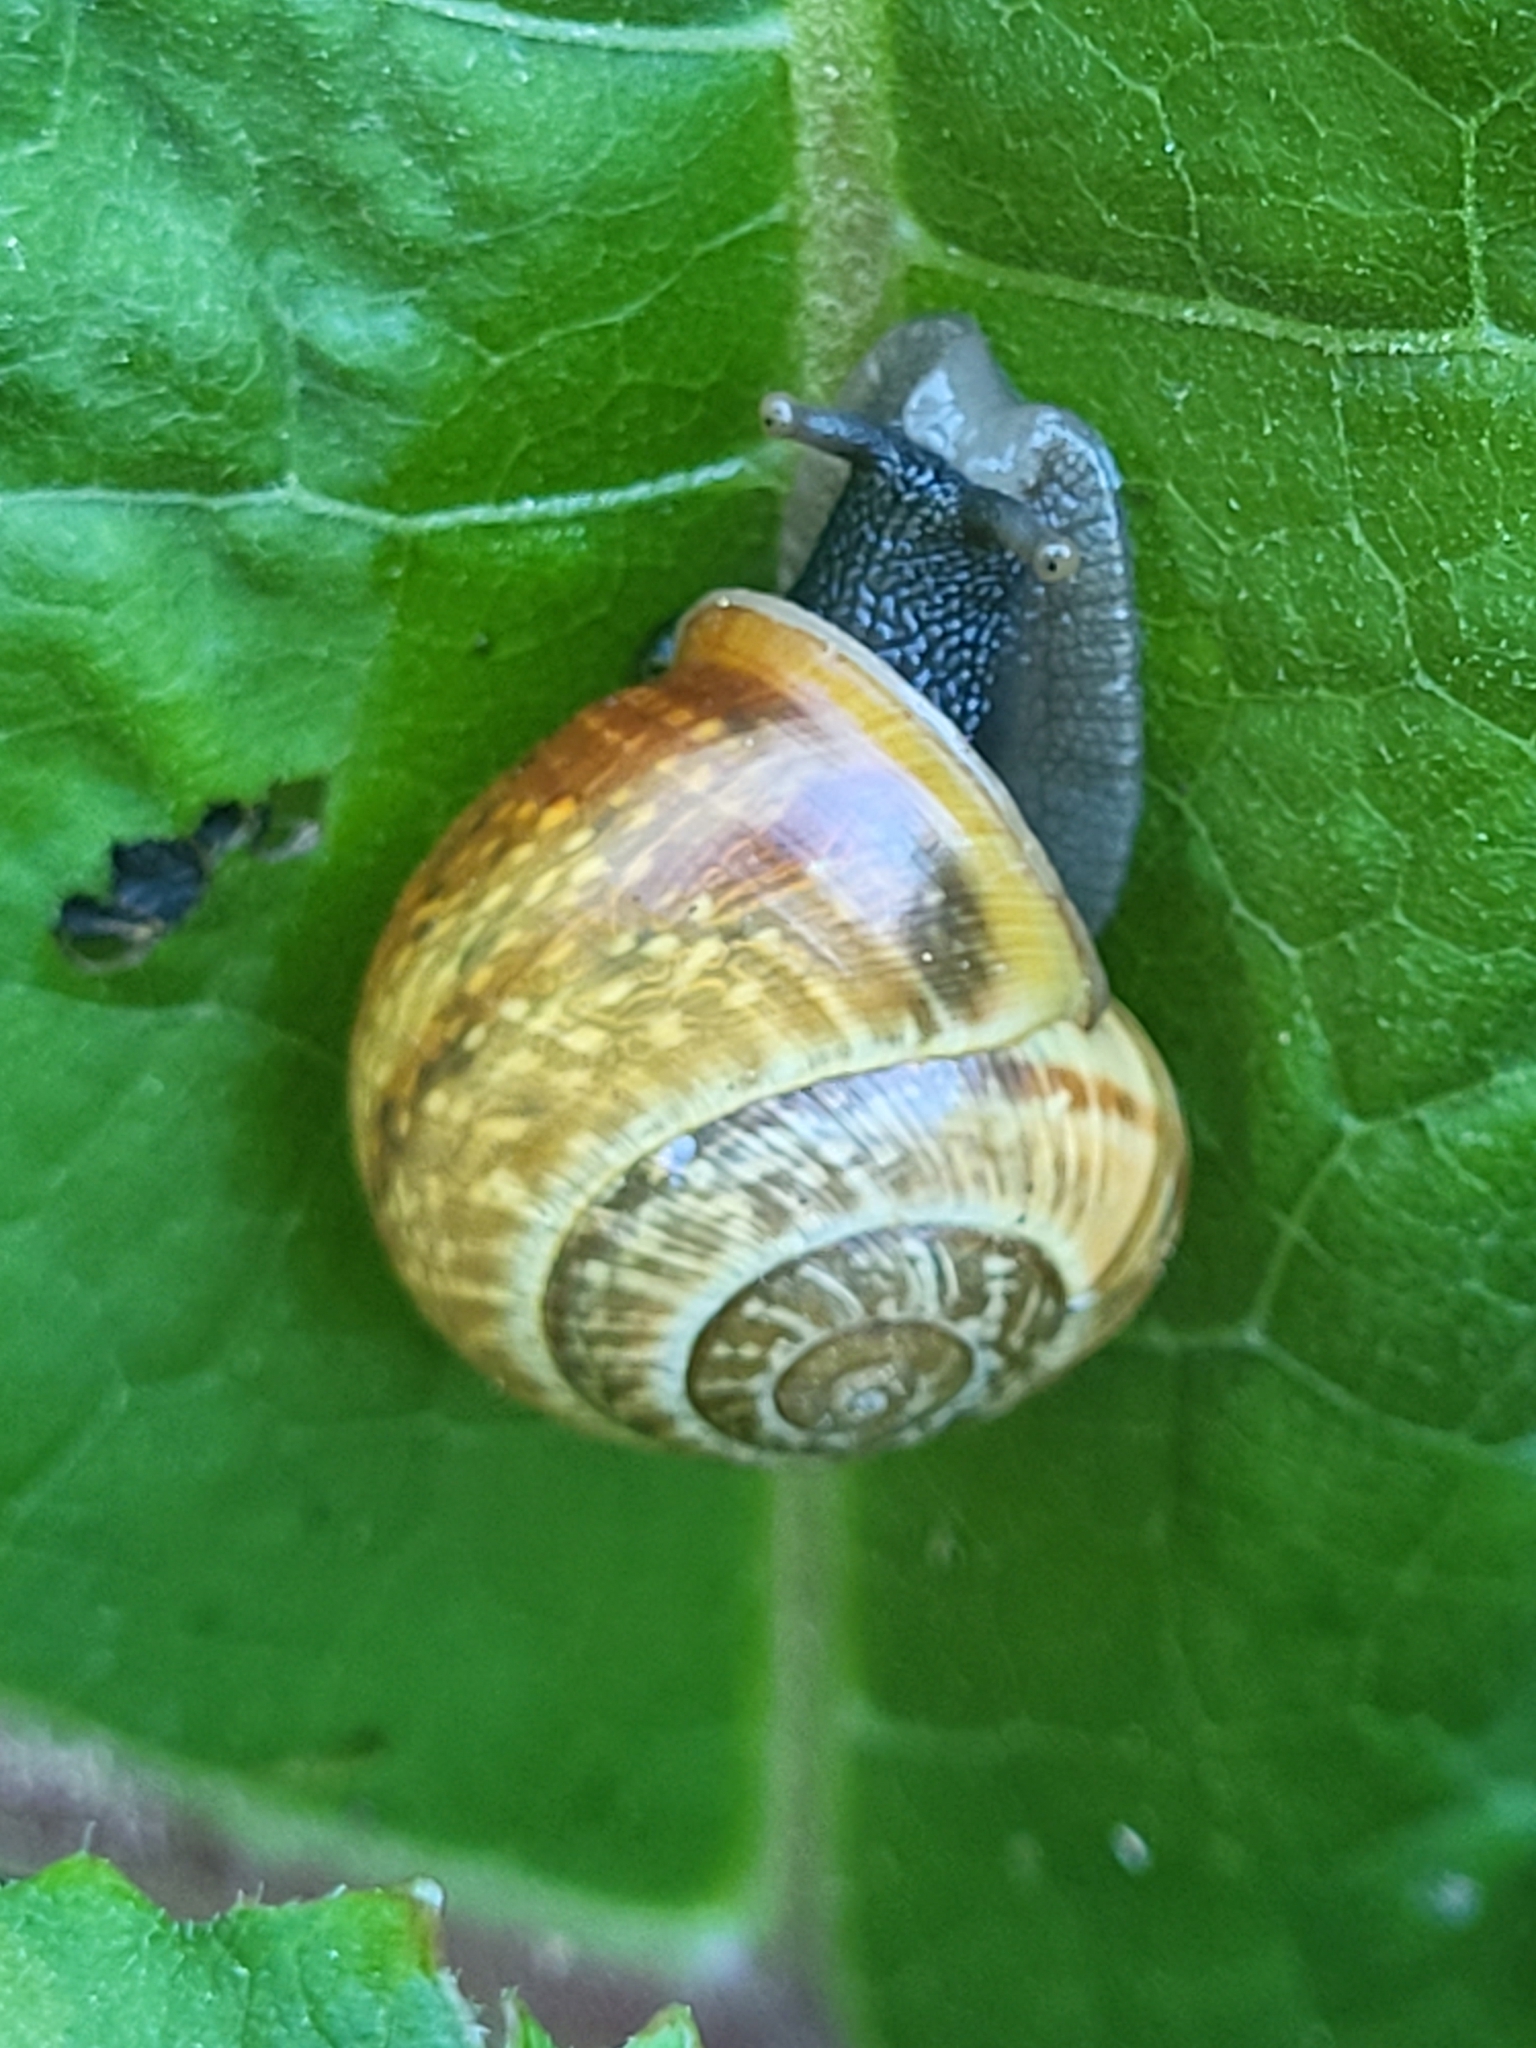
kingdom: Animalia
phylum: Mollusca
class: Gastropoda
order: Stylommatophora
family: Helicidae
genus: Arianta
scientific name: Arianta arbustorum
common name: Copse snail
